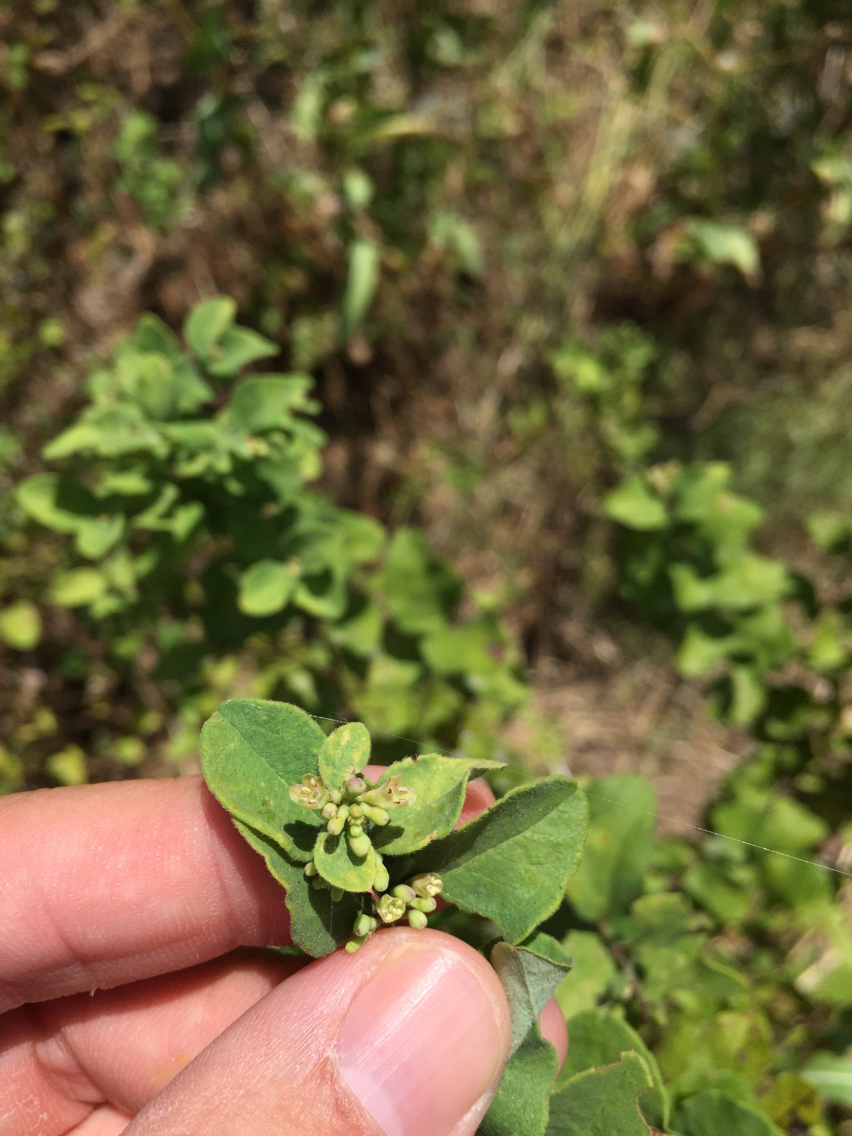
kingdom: Plantae
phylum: Tracheophyta
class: Magnoliopsida
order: Dipsacales
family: Caprifoliaceae
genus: Symphoricarpos
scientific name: Symphoricarpos orbiculatus
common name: Coralberry
